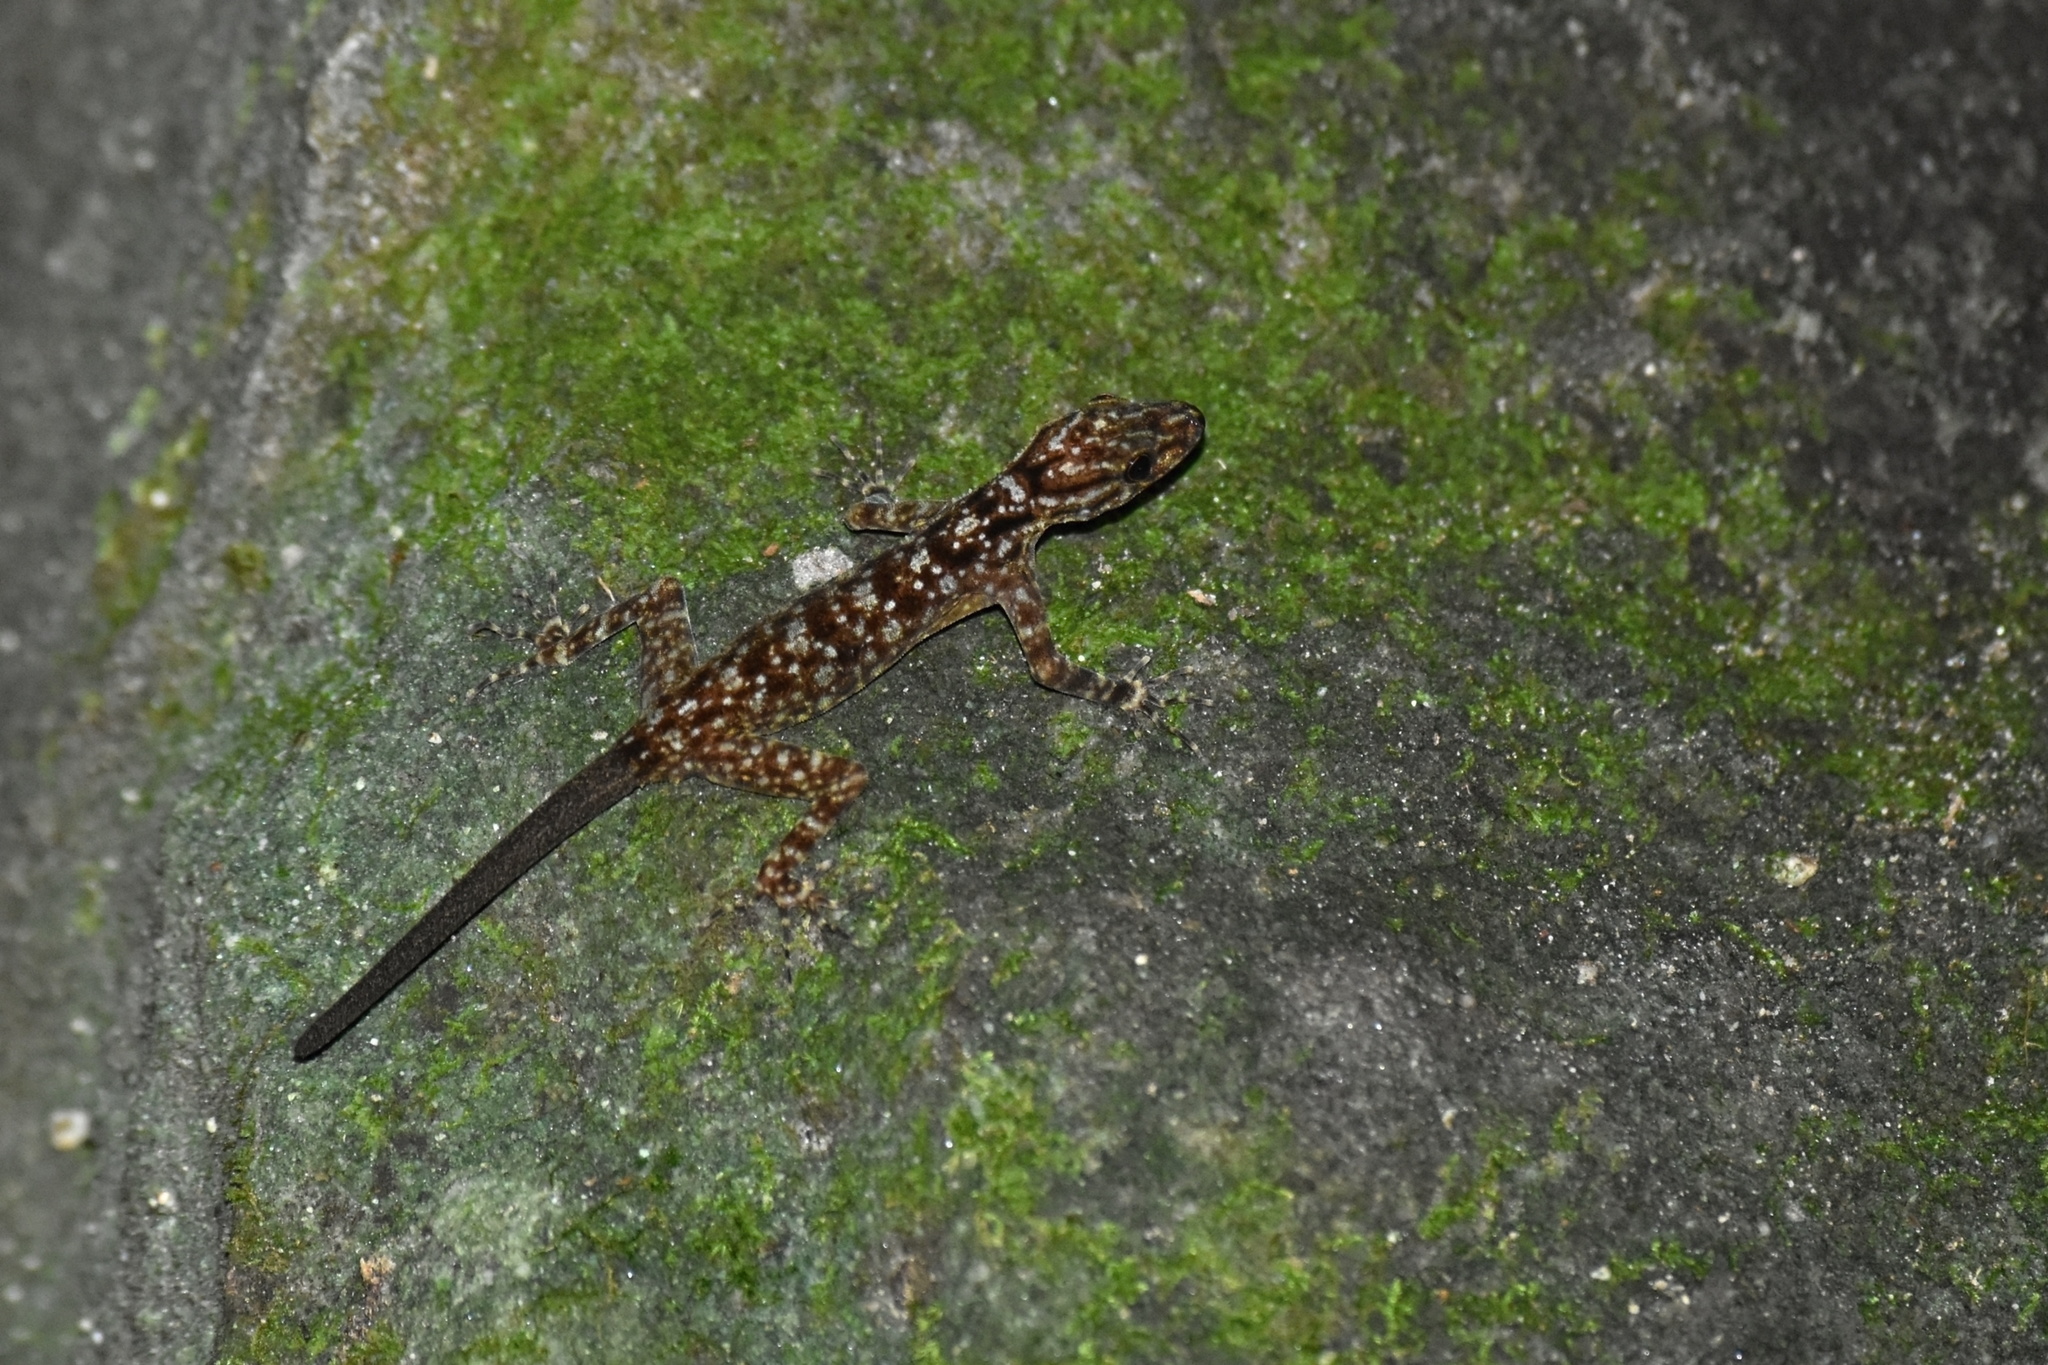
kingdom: Animalia
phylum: Chordata
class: Squamata
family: Gekkonidae
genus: Cnemaspis
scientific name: Cnemaspis kendallii
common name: Kendall's rock gecko
